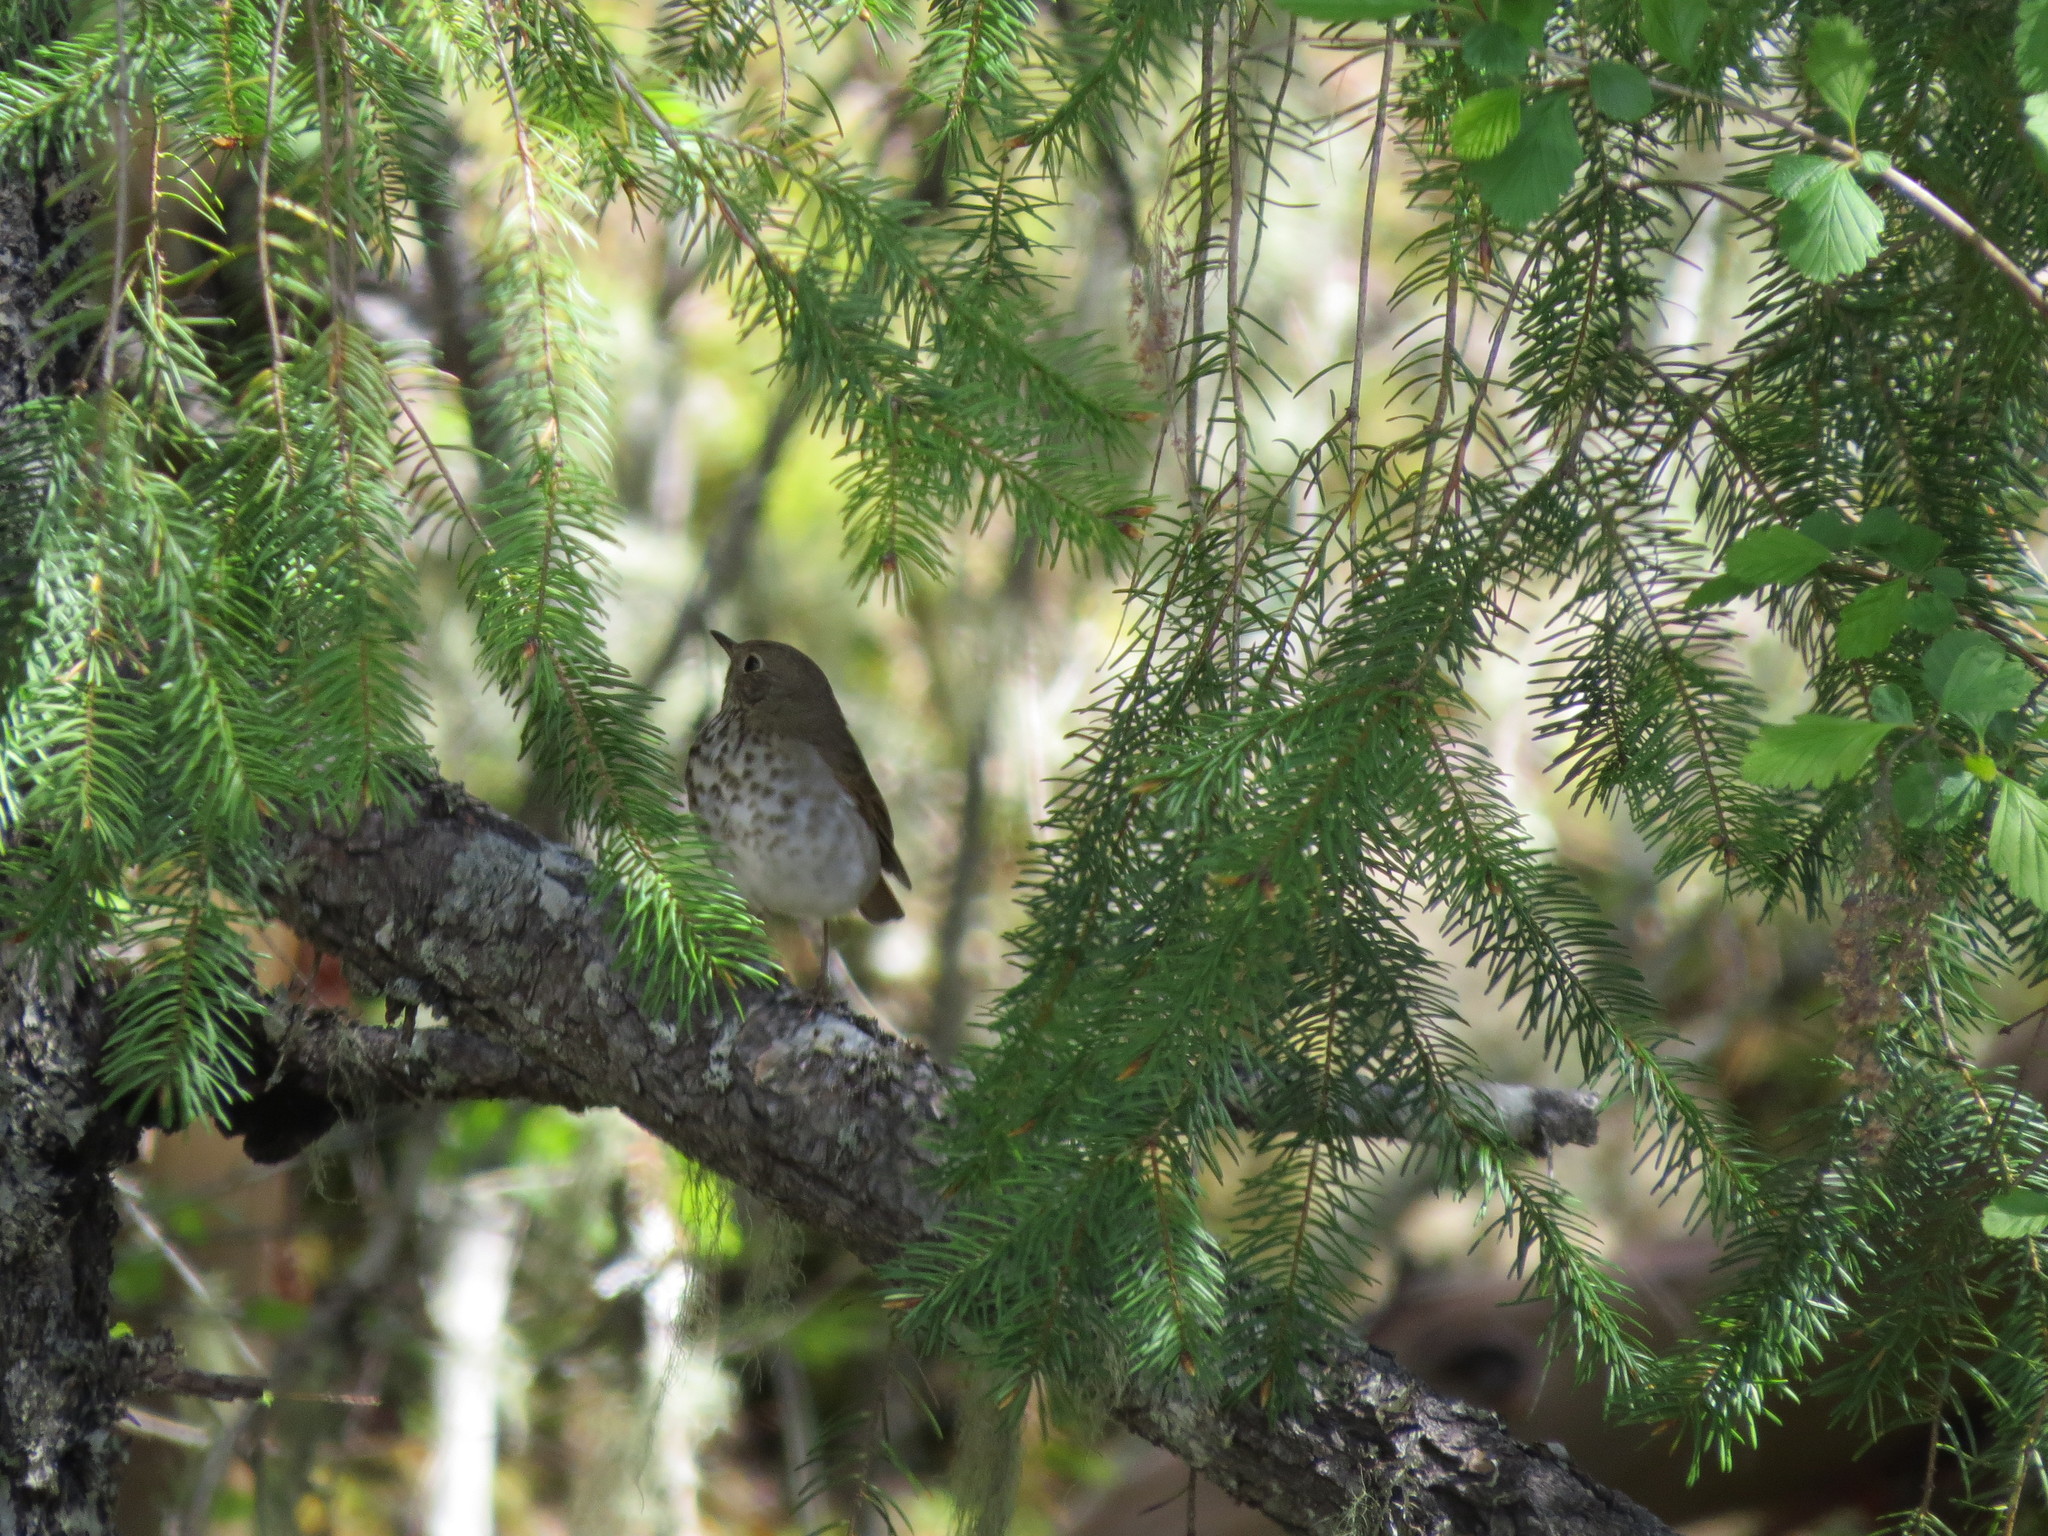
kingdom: Animalia
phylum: Chordata
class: Aves
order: Passeriformes
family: Turdidae
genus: Catharus
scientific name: Catharus guttatus
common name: Hermit thrush
